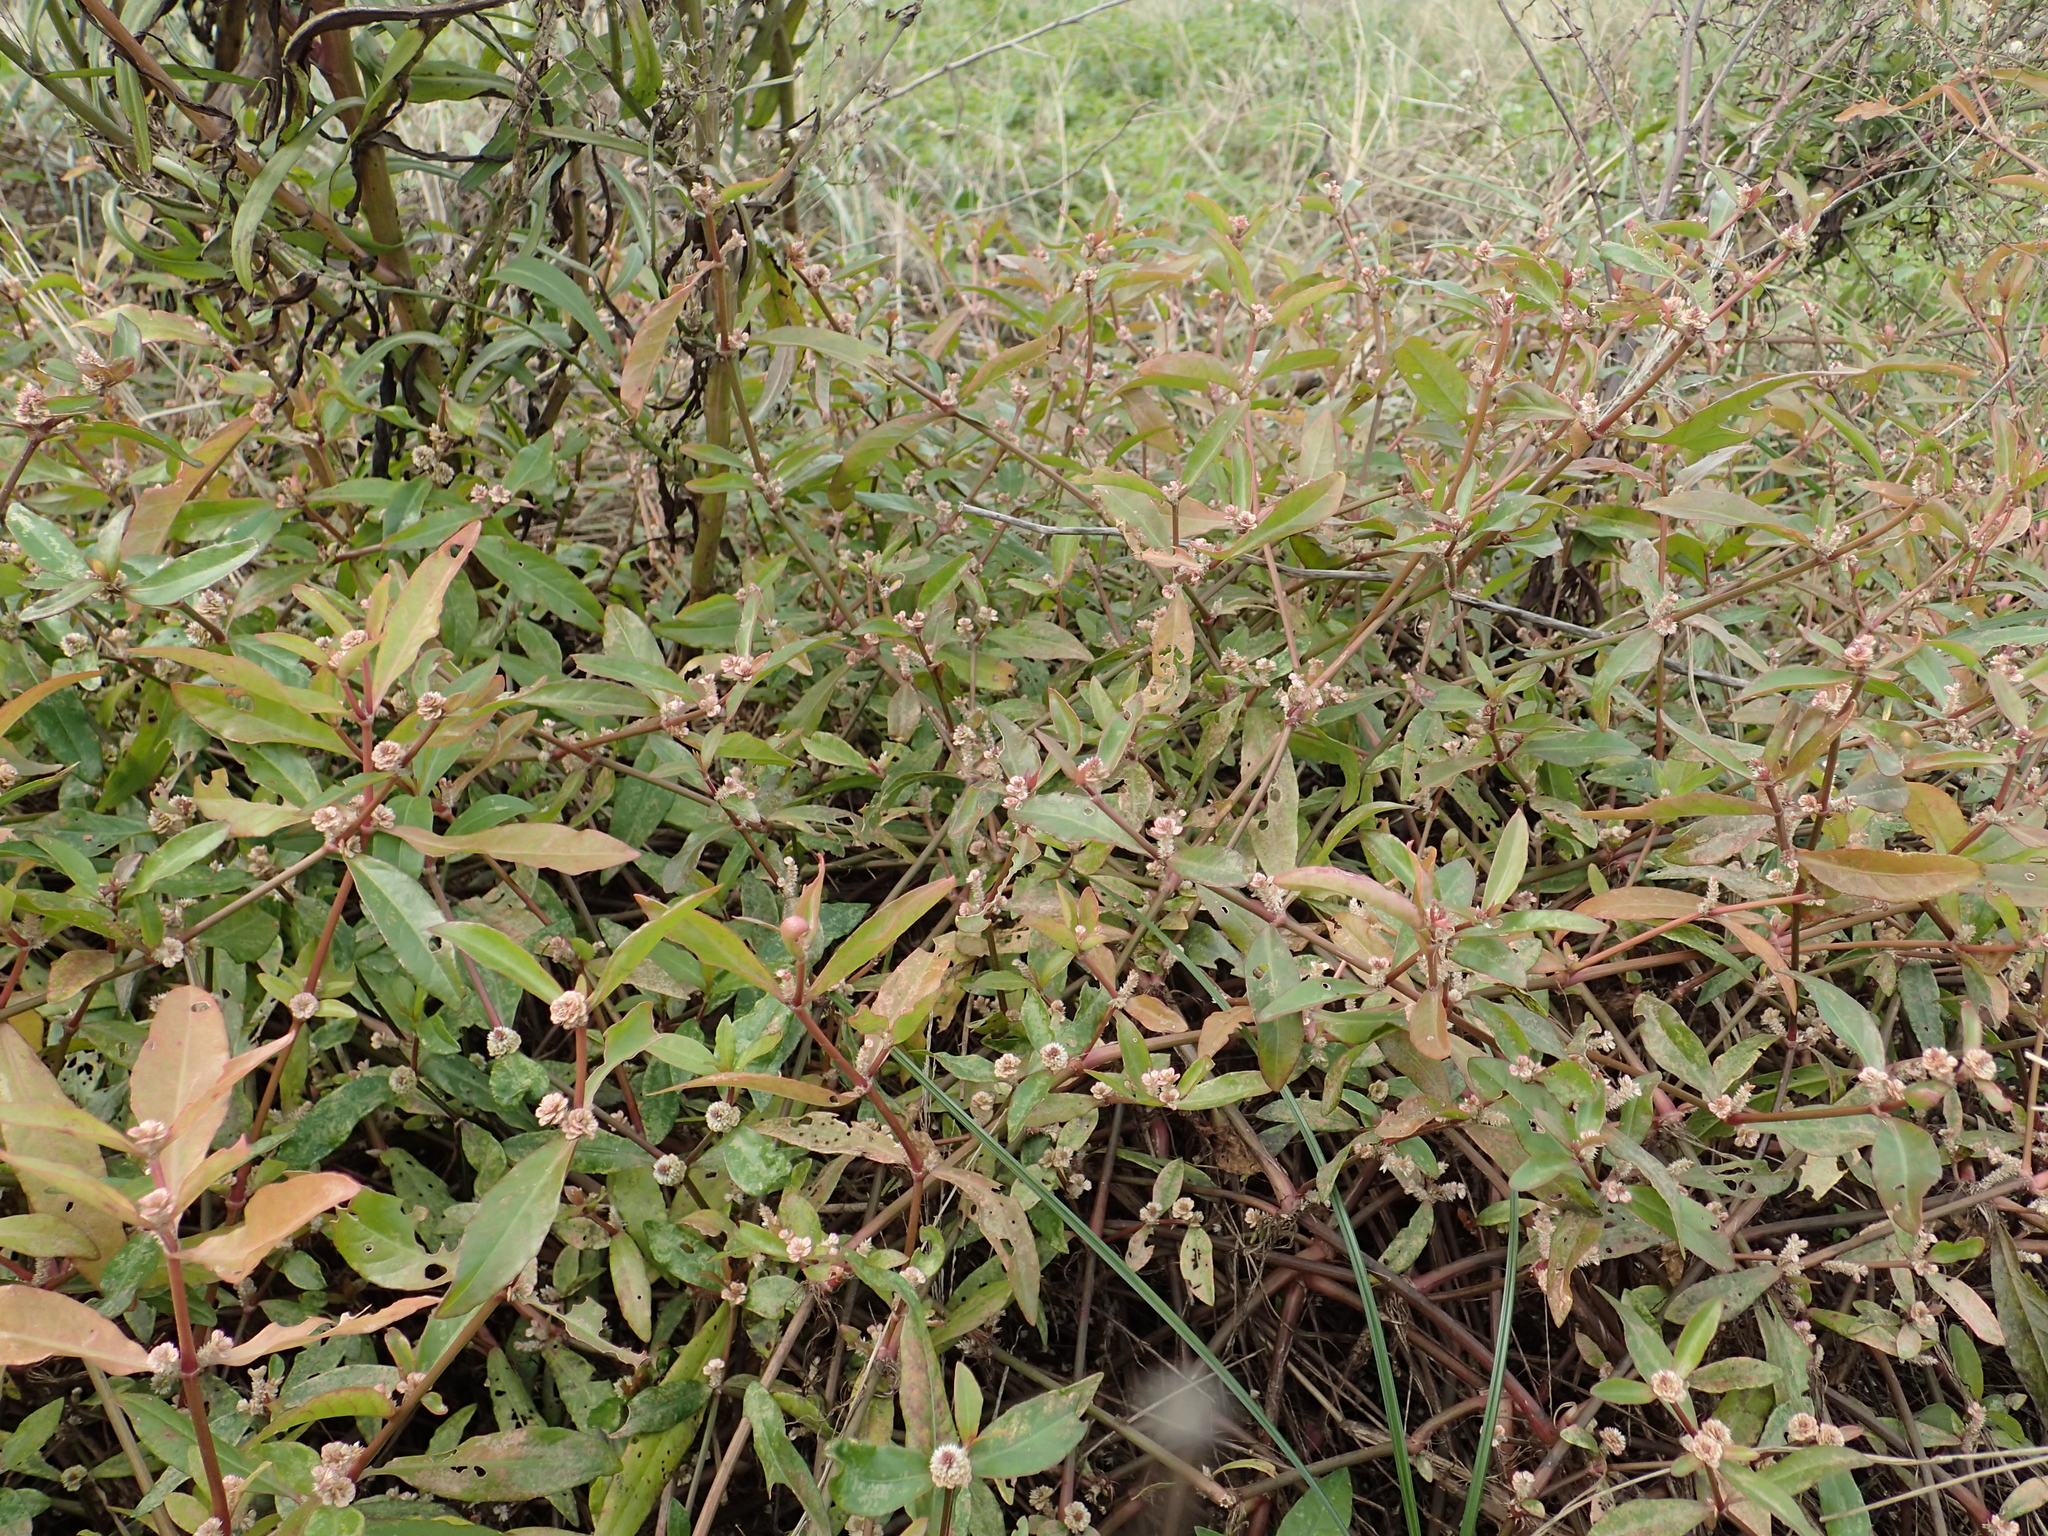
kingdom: Plantae
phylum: Tracheophyta
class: Magnoliopsida
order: Caryophyllales
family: Amaranthaceae
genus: Alternanthera
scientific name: Alternanthera sessilis
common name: Sessile joyweed
